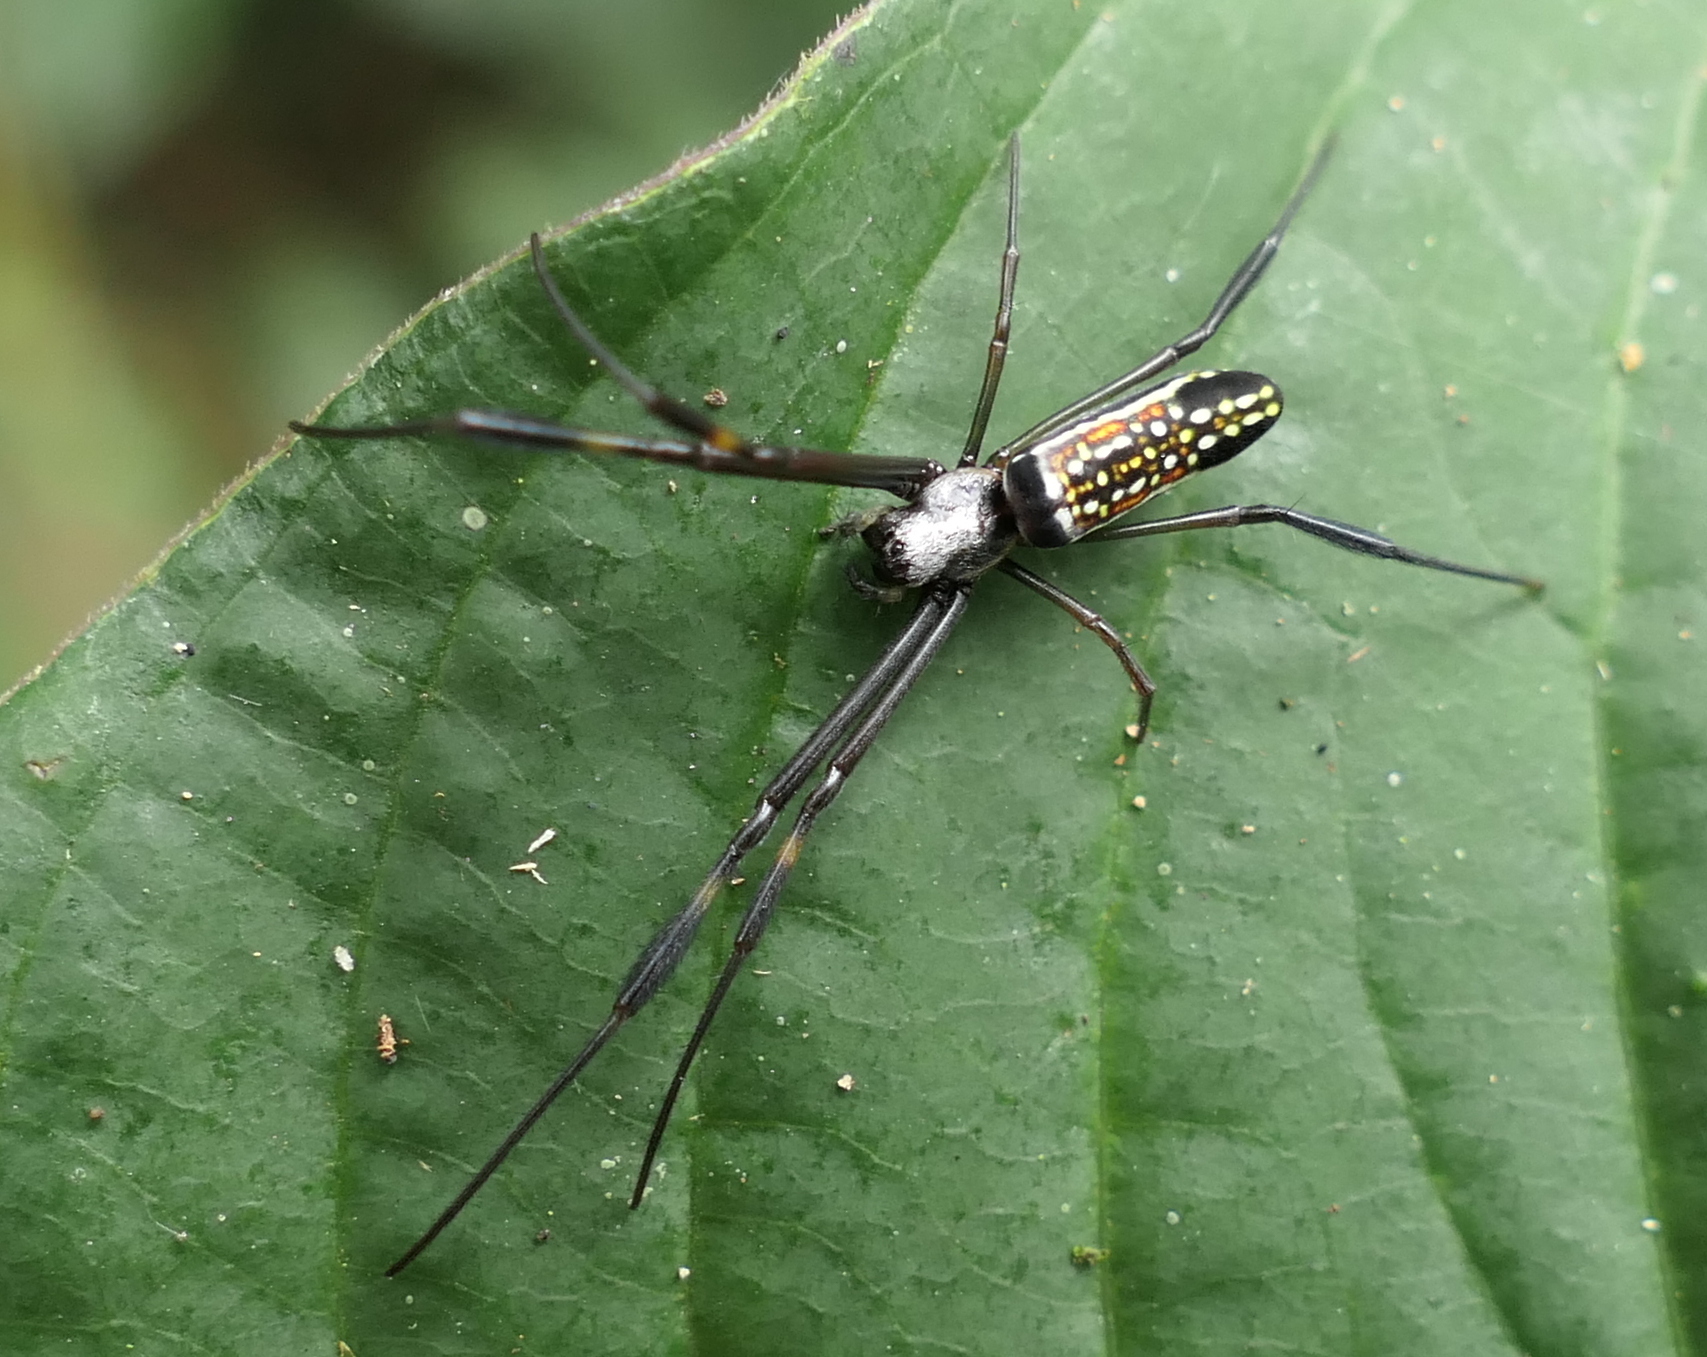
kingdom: Animalia
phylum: Arthropoda
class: Arachnida
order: Araneae
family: Araneidae
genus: Trichonephila
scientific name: Trichonephila clavipes
